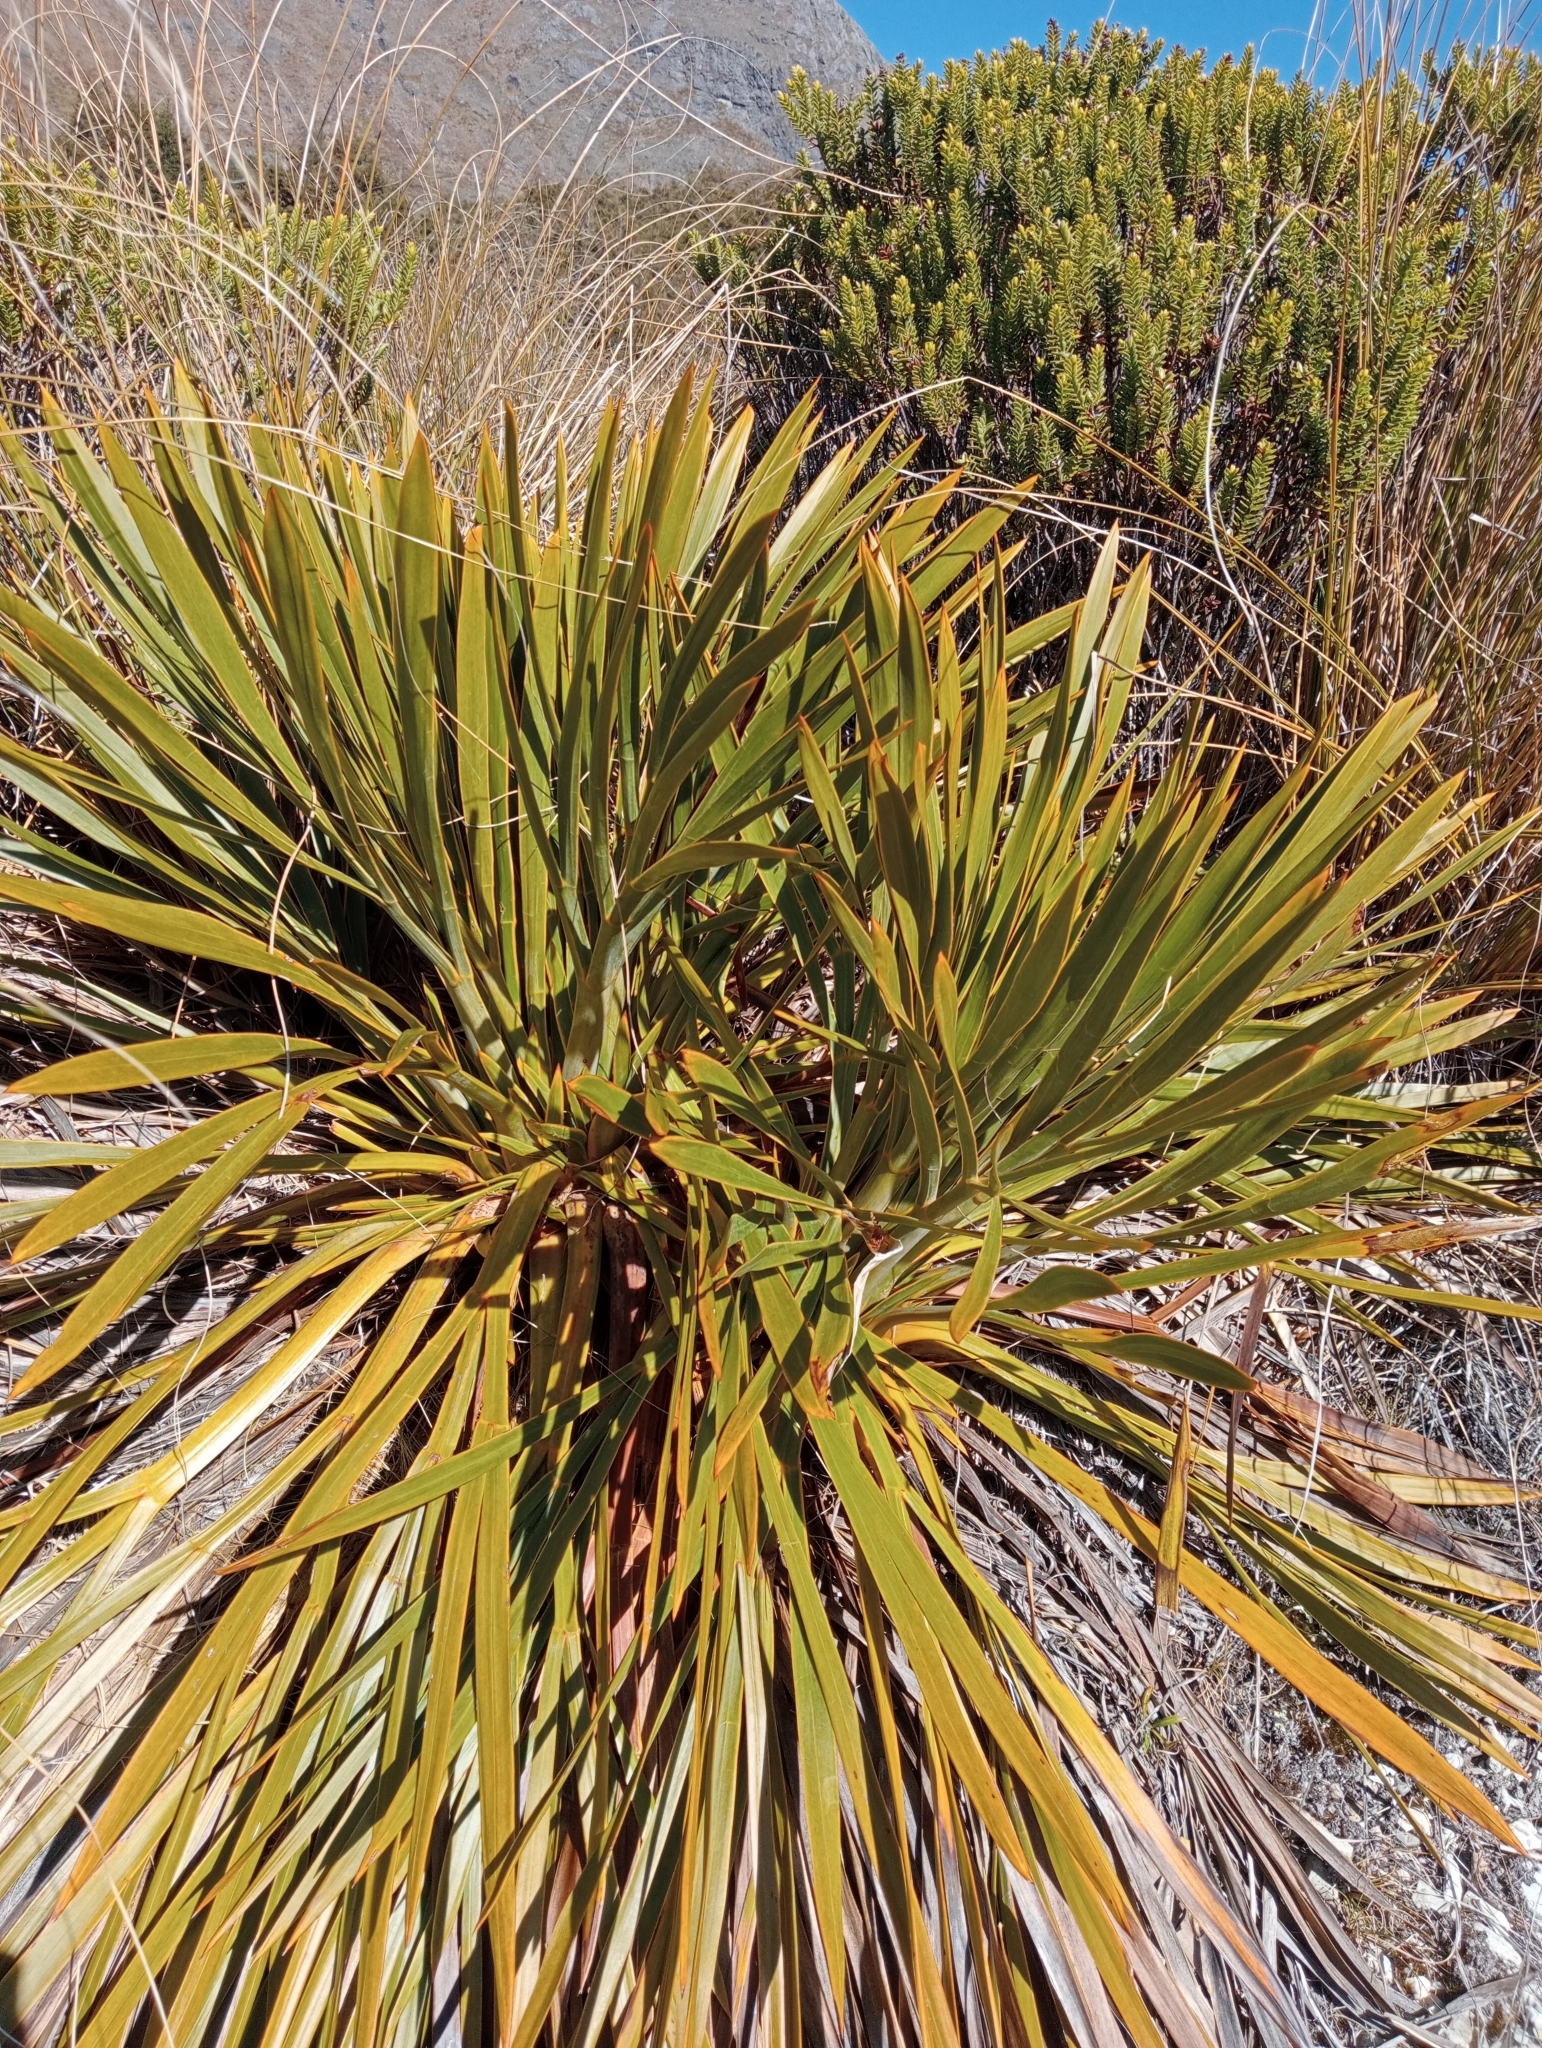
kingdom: Plantae
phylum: Tracheophyta
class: Magnoliopsida
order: Apiales
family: Apiaceae
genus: Aciphylla
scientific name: Aciphylla horrida
